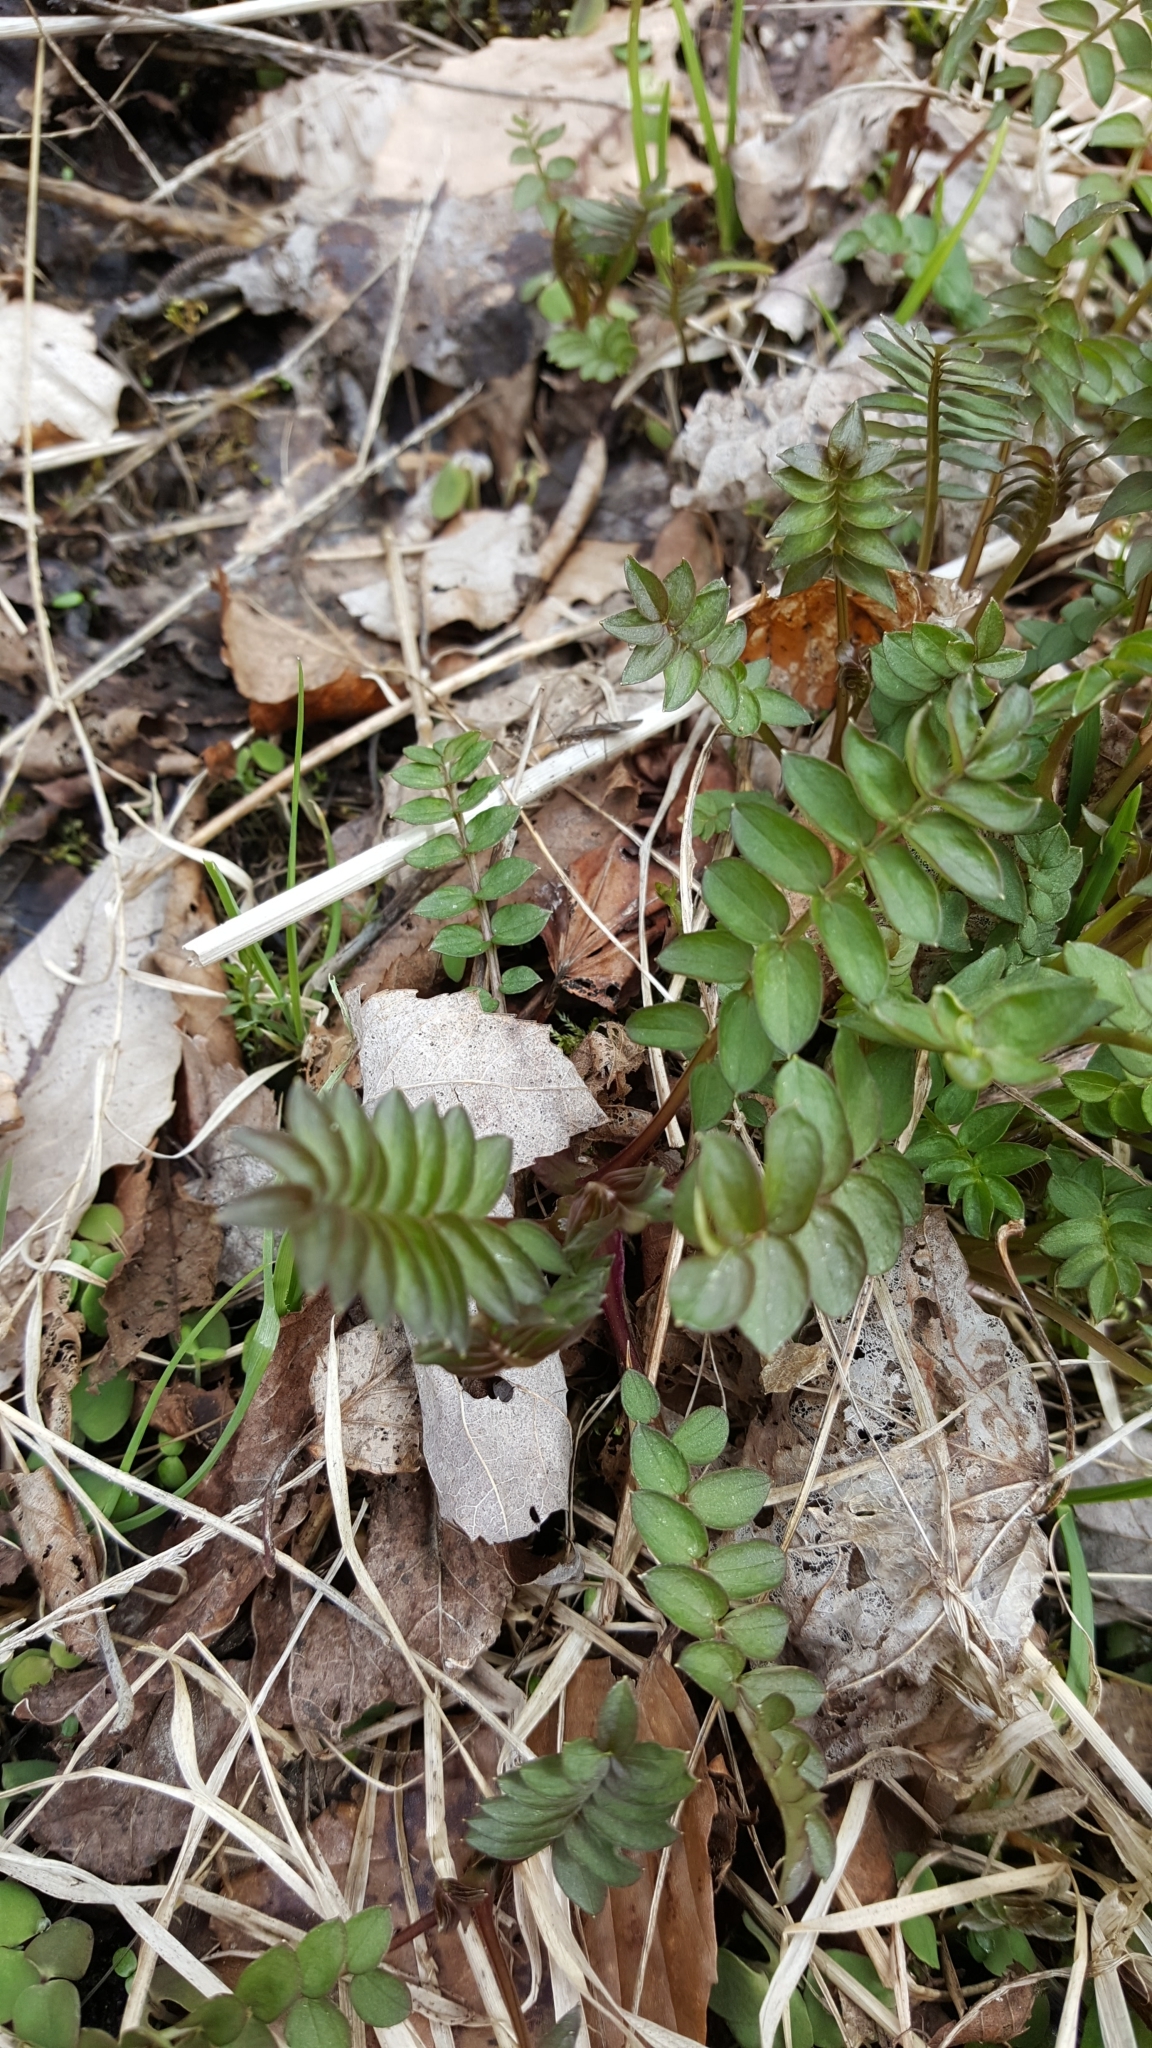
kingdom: Plantae
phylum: Tracheophyta
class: Magnoliopsida
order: Ericales
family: Polemoniaceae
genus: Polemonium
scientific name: Polemonium vanbruntiae
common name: Bog jacob's-ladder
